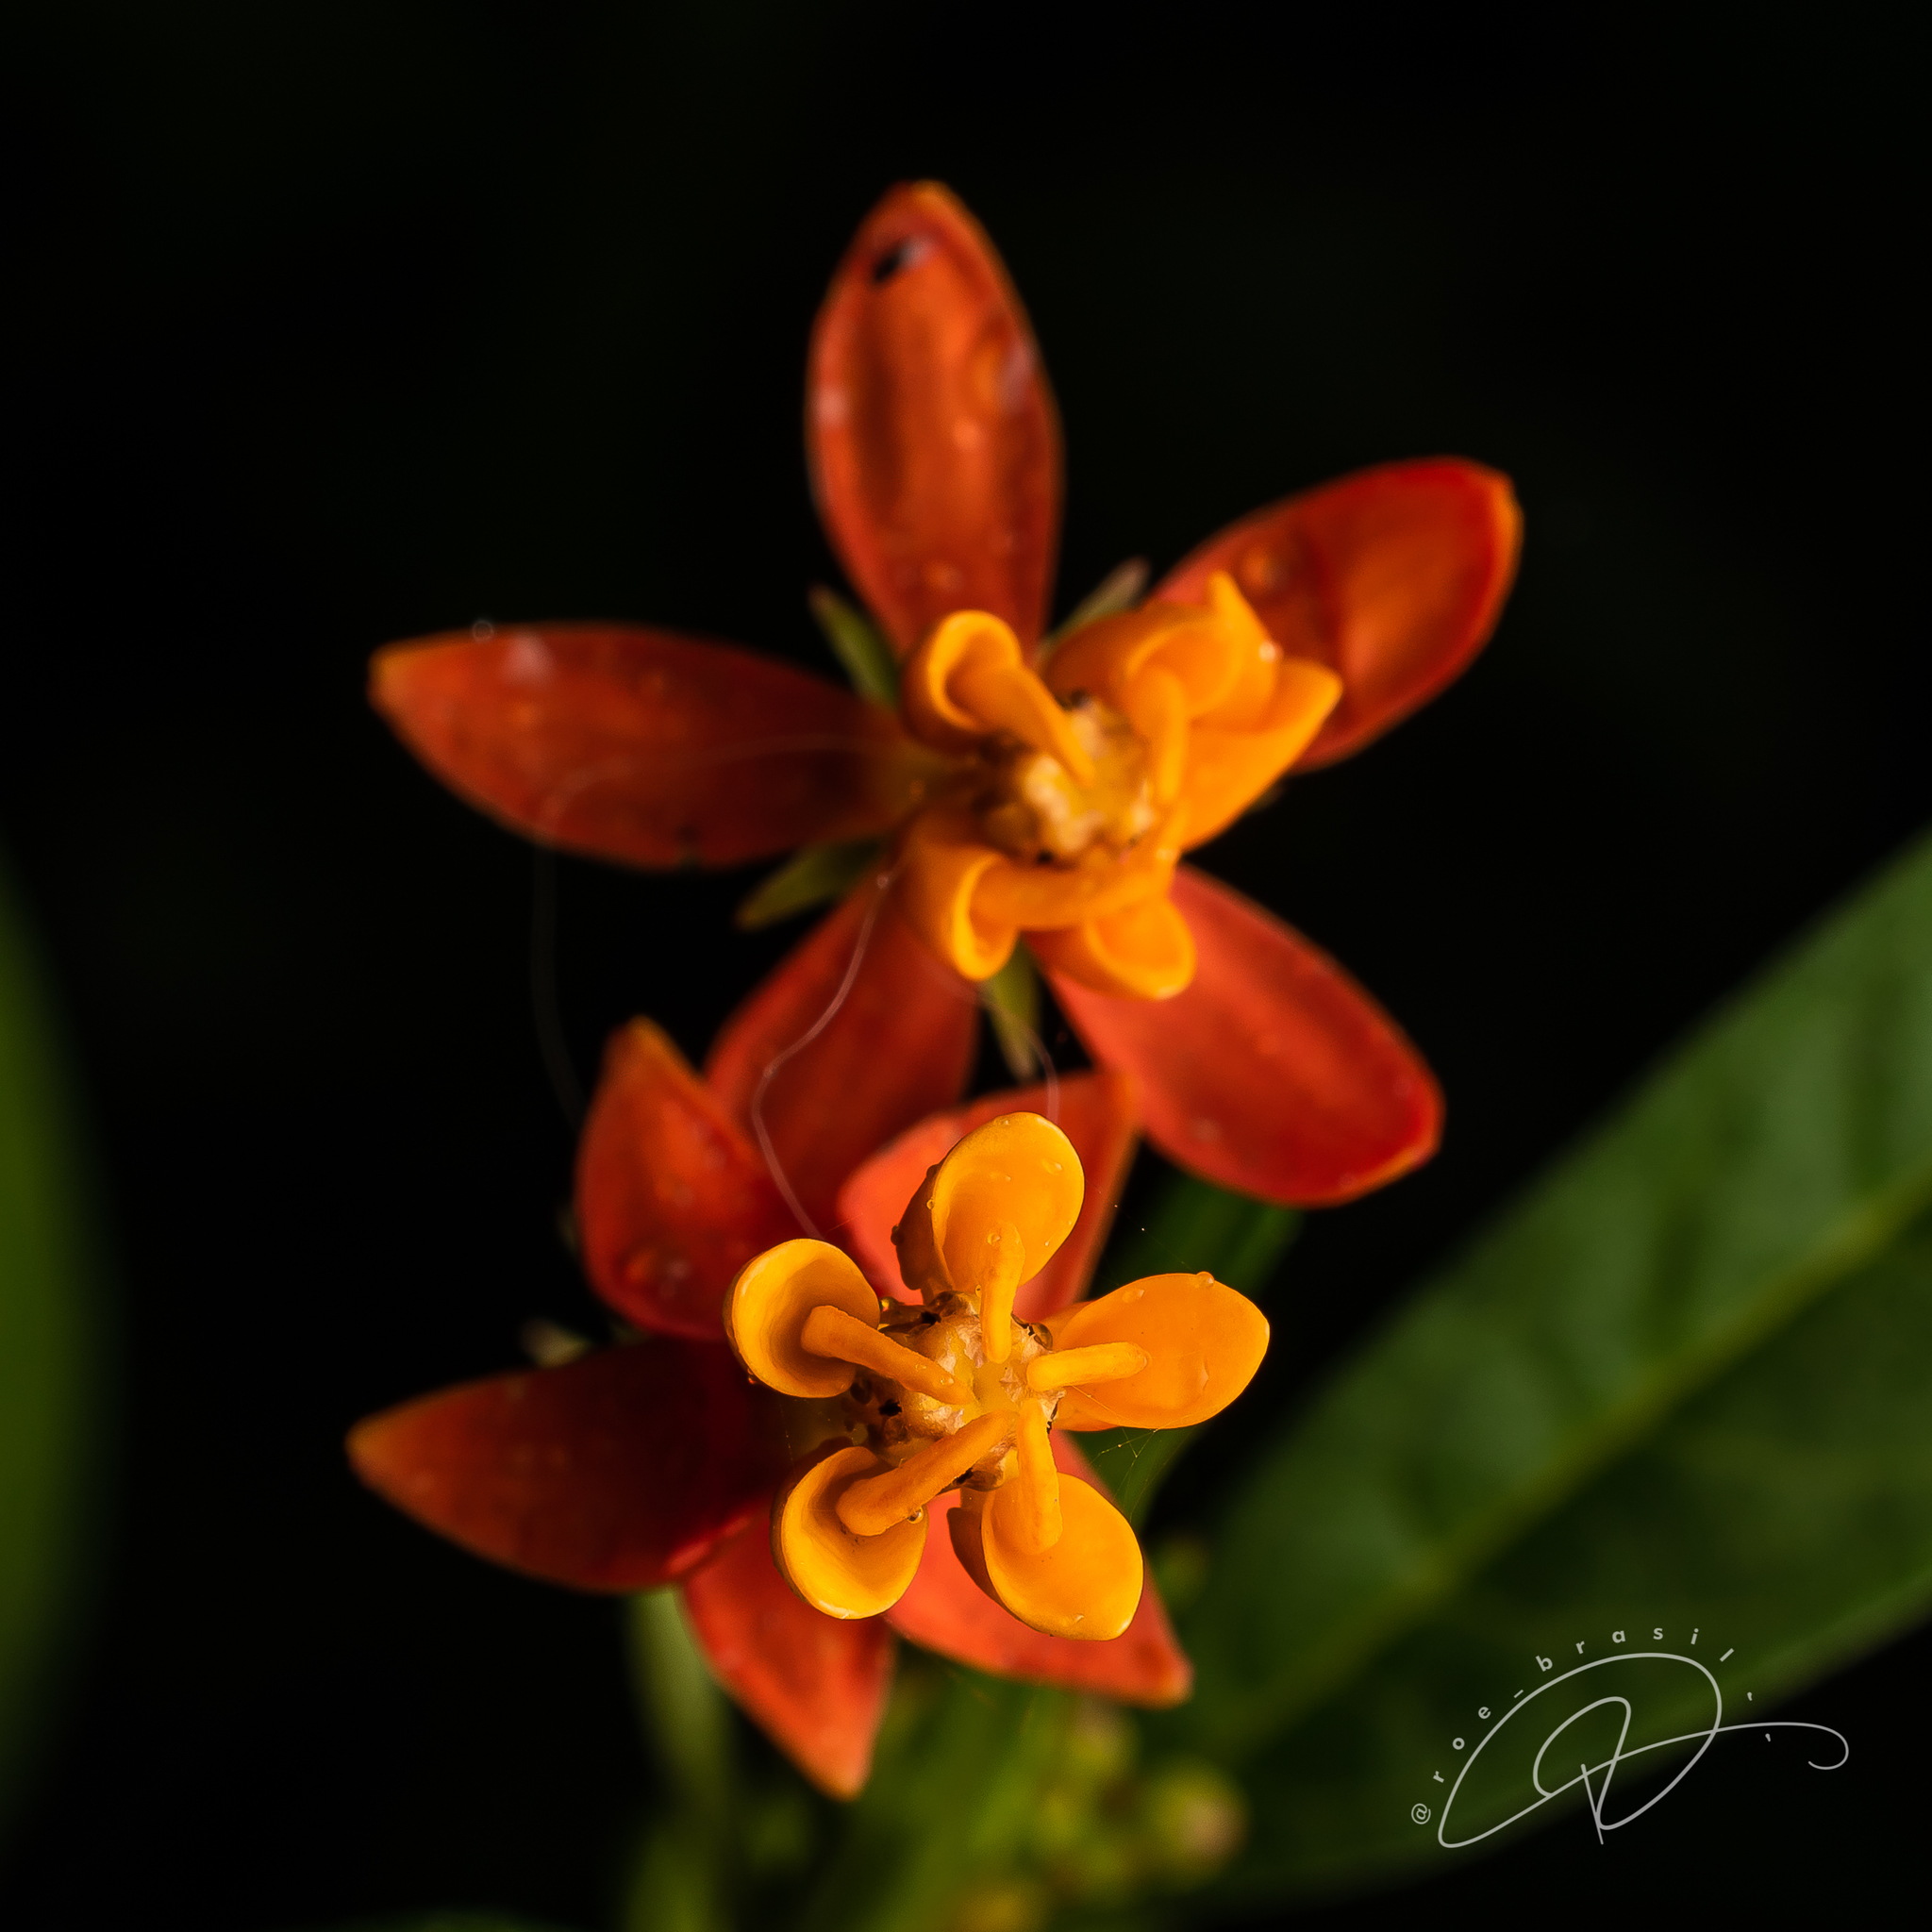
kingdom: Plantae
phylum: Tracheophyta
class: Magnoliopsida
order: Gentianales
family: Apocynaceae
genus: Asclepias
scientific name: Asclepias curassavica
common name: Bloodflower
